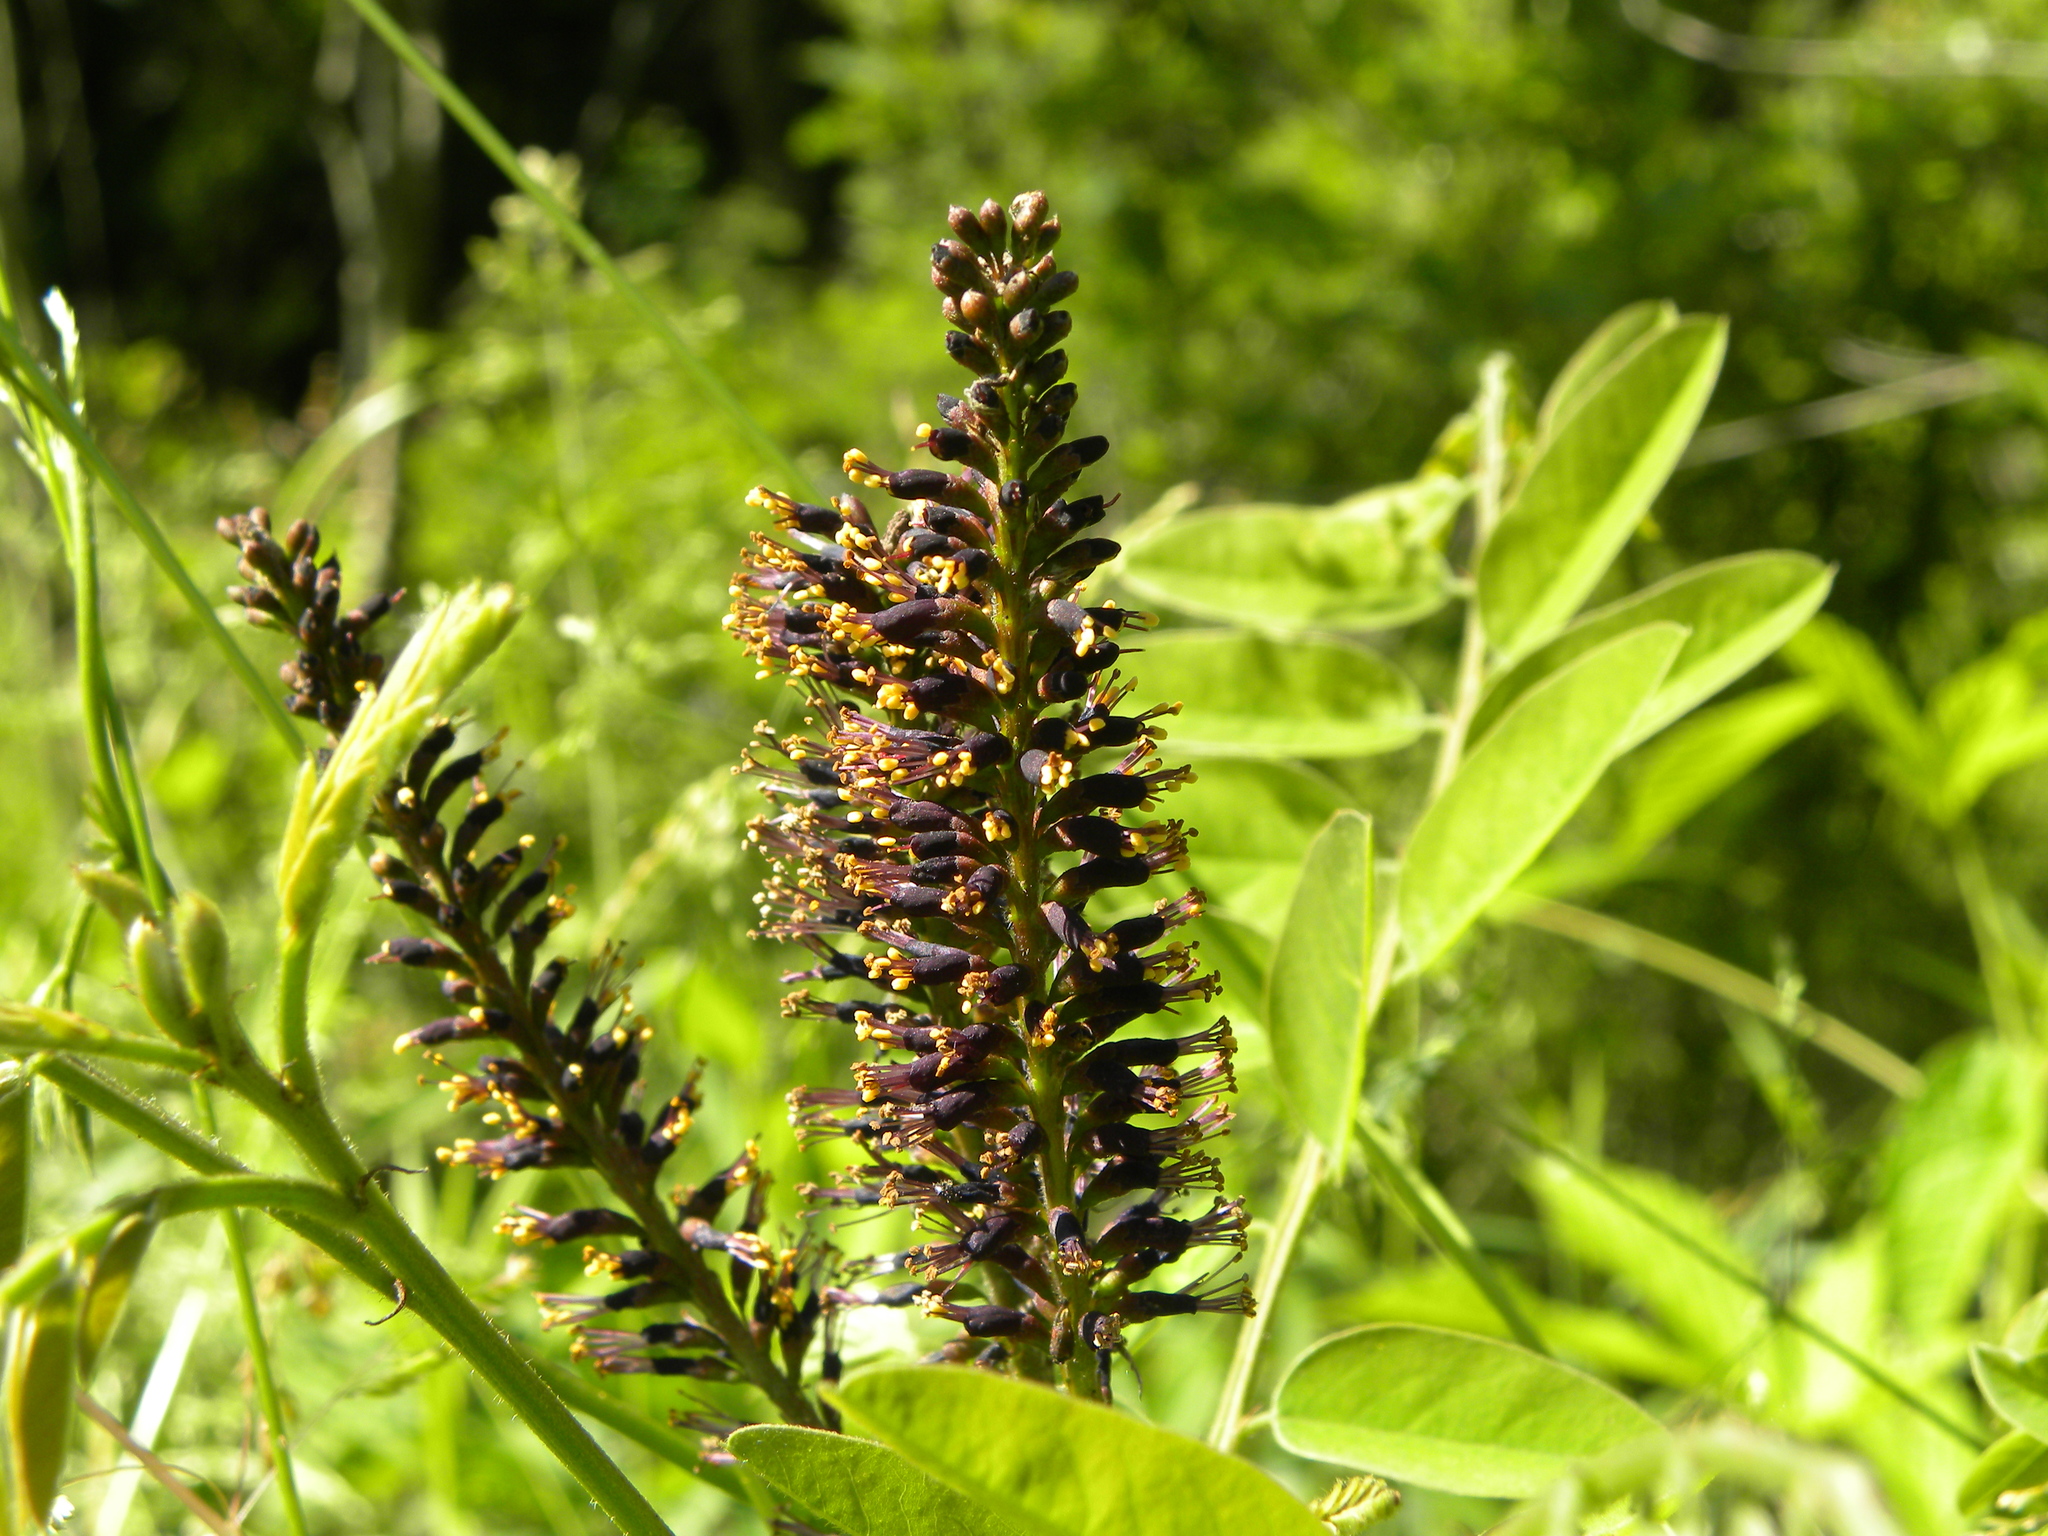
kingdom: Plantae
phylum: Tracheophyta
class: Magnoliopsida
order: Fabales
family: Fabaceae
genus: Amorpha
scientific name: Amorpha fruticosa
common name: False indigo
